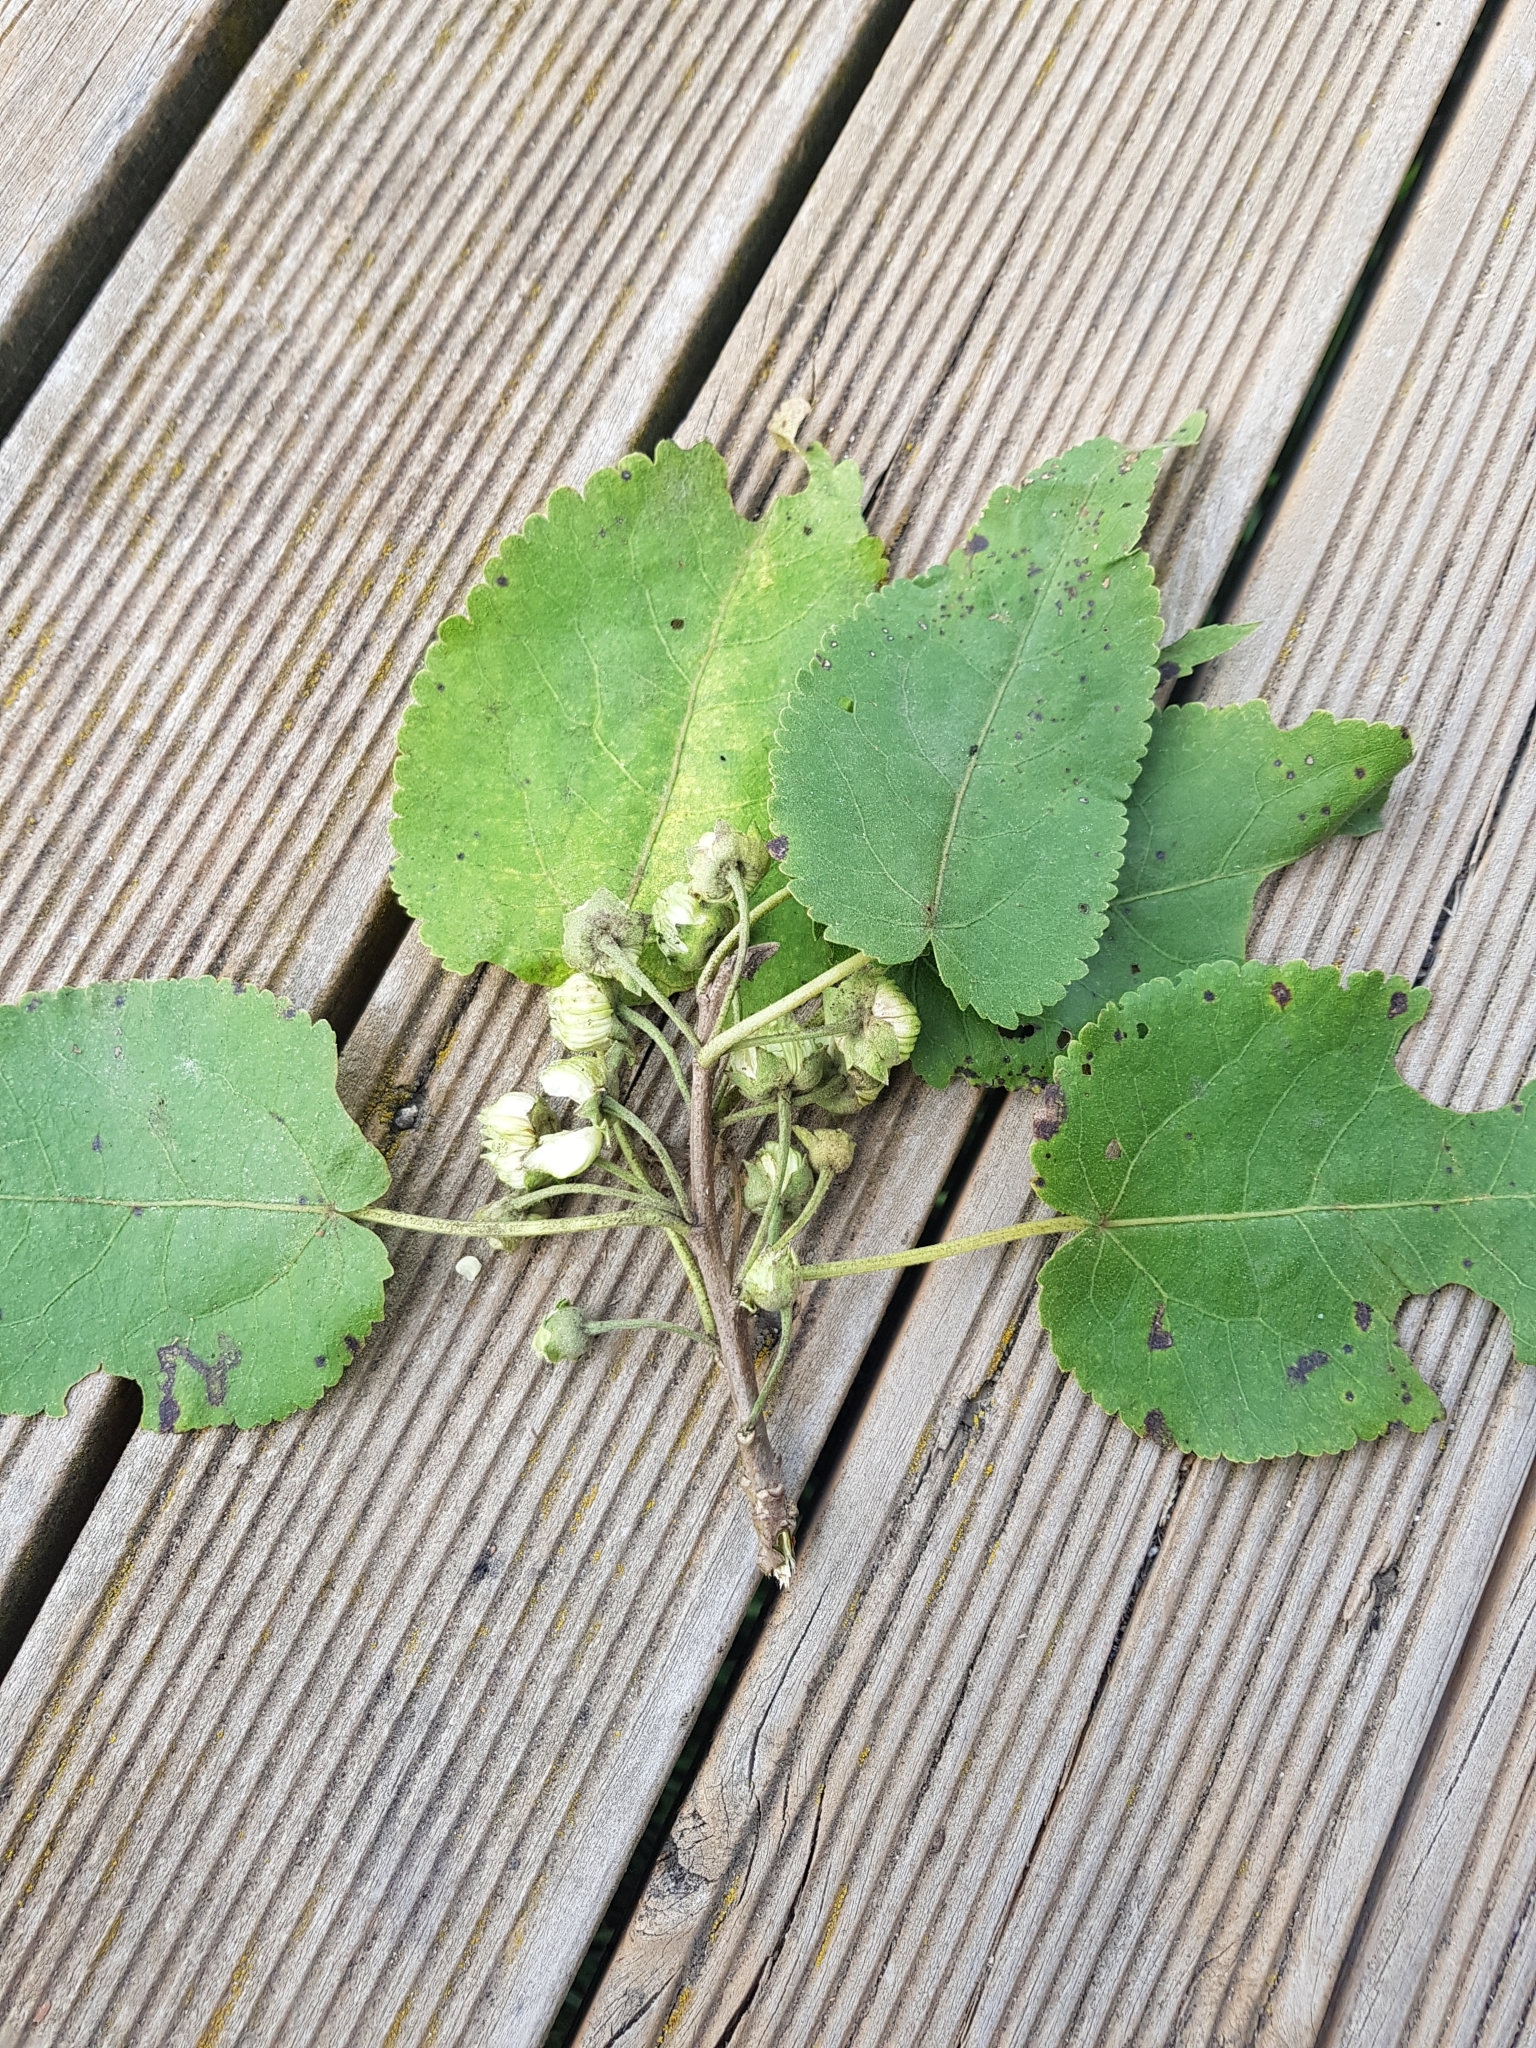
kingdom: Plantae
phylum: Tracheophyta
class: Magnoliopsida
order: Malvales
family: Malvaceae
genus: Hoheria
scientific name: Hoheria glabrata
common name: Mountain-ribbon
